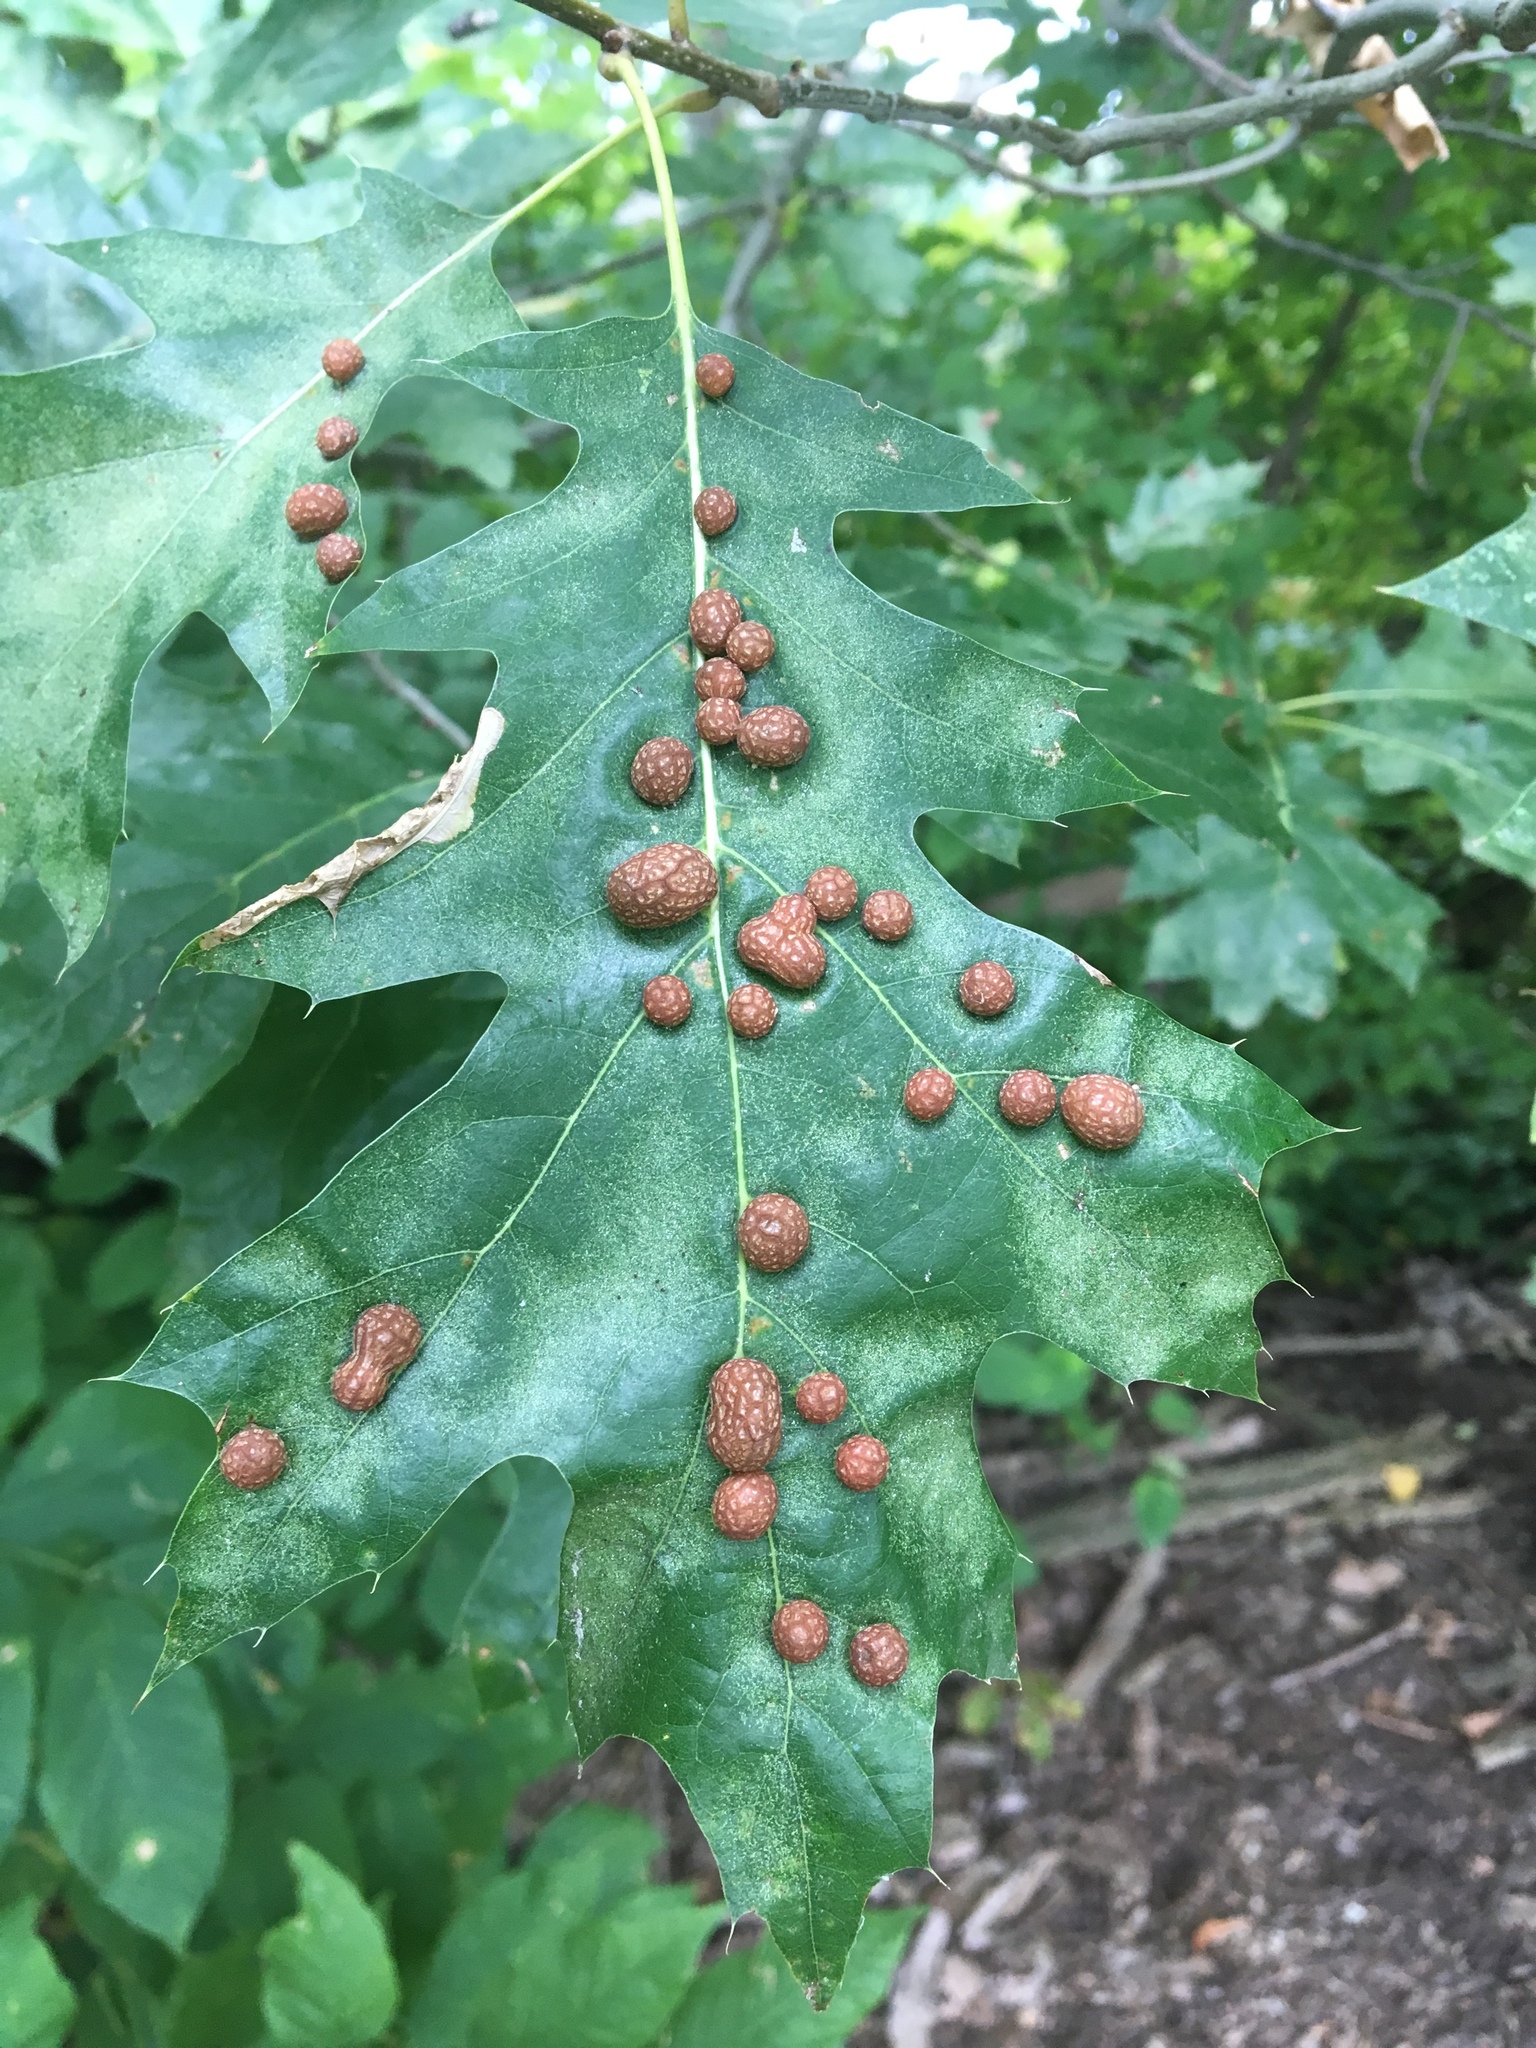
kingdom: Animalia
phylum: Arthropoda
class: Insecta
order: Diptera
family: Cecidomyiidae
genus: Polystepha
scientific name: Polystepha pilulae
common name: Oak leaf gall midge
